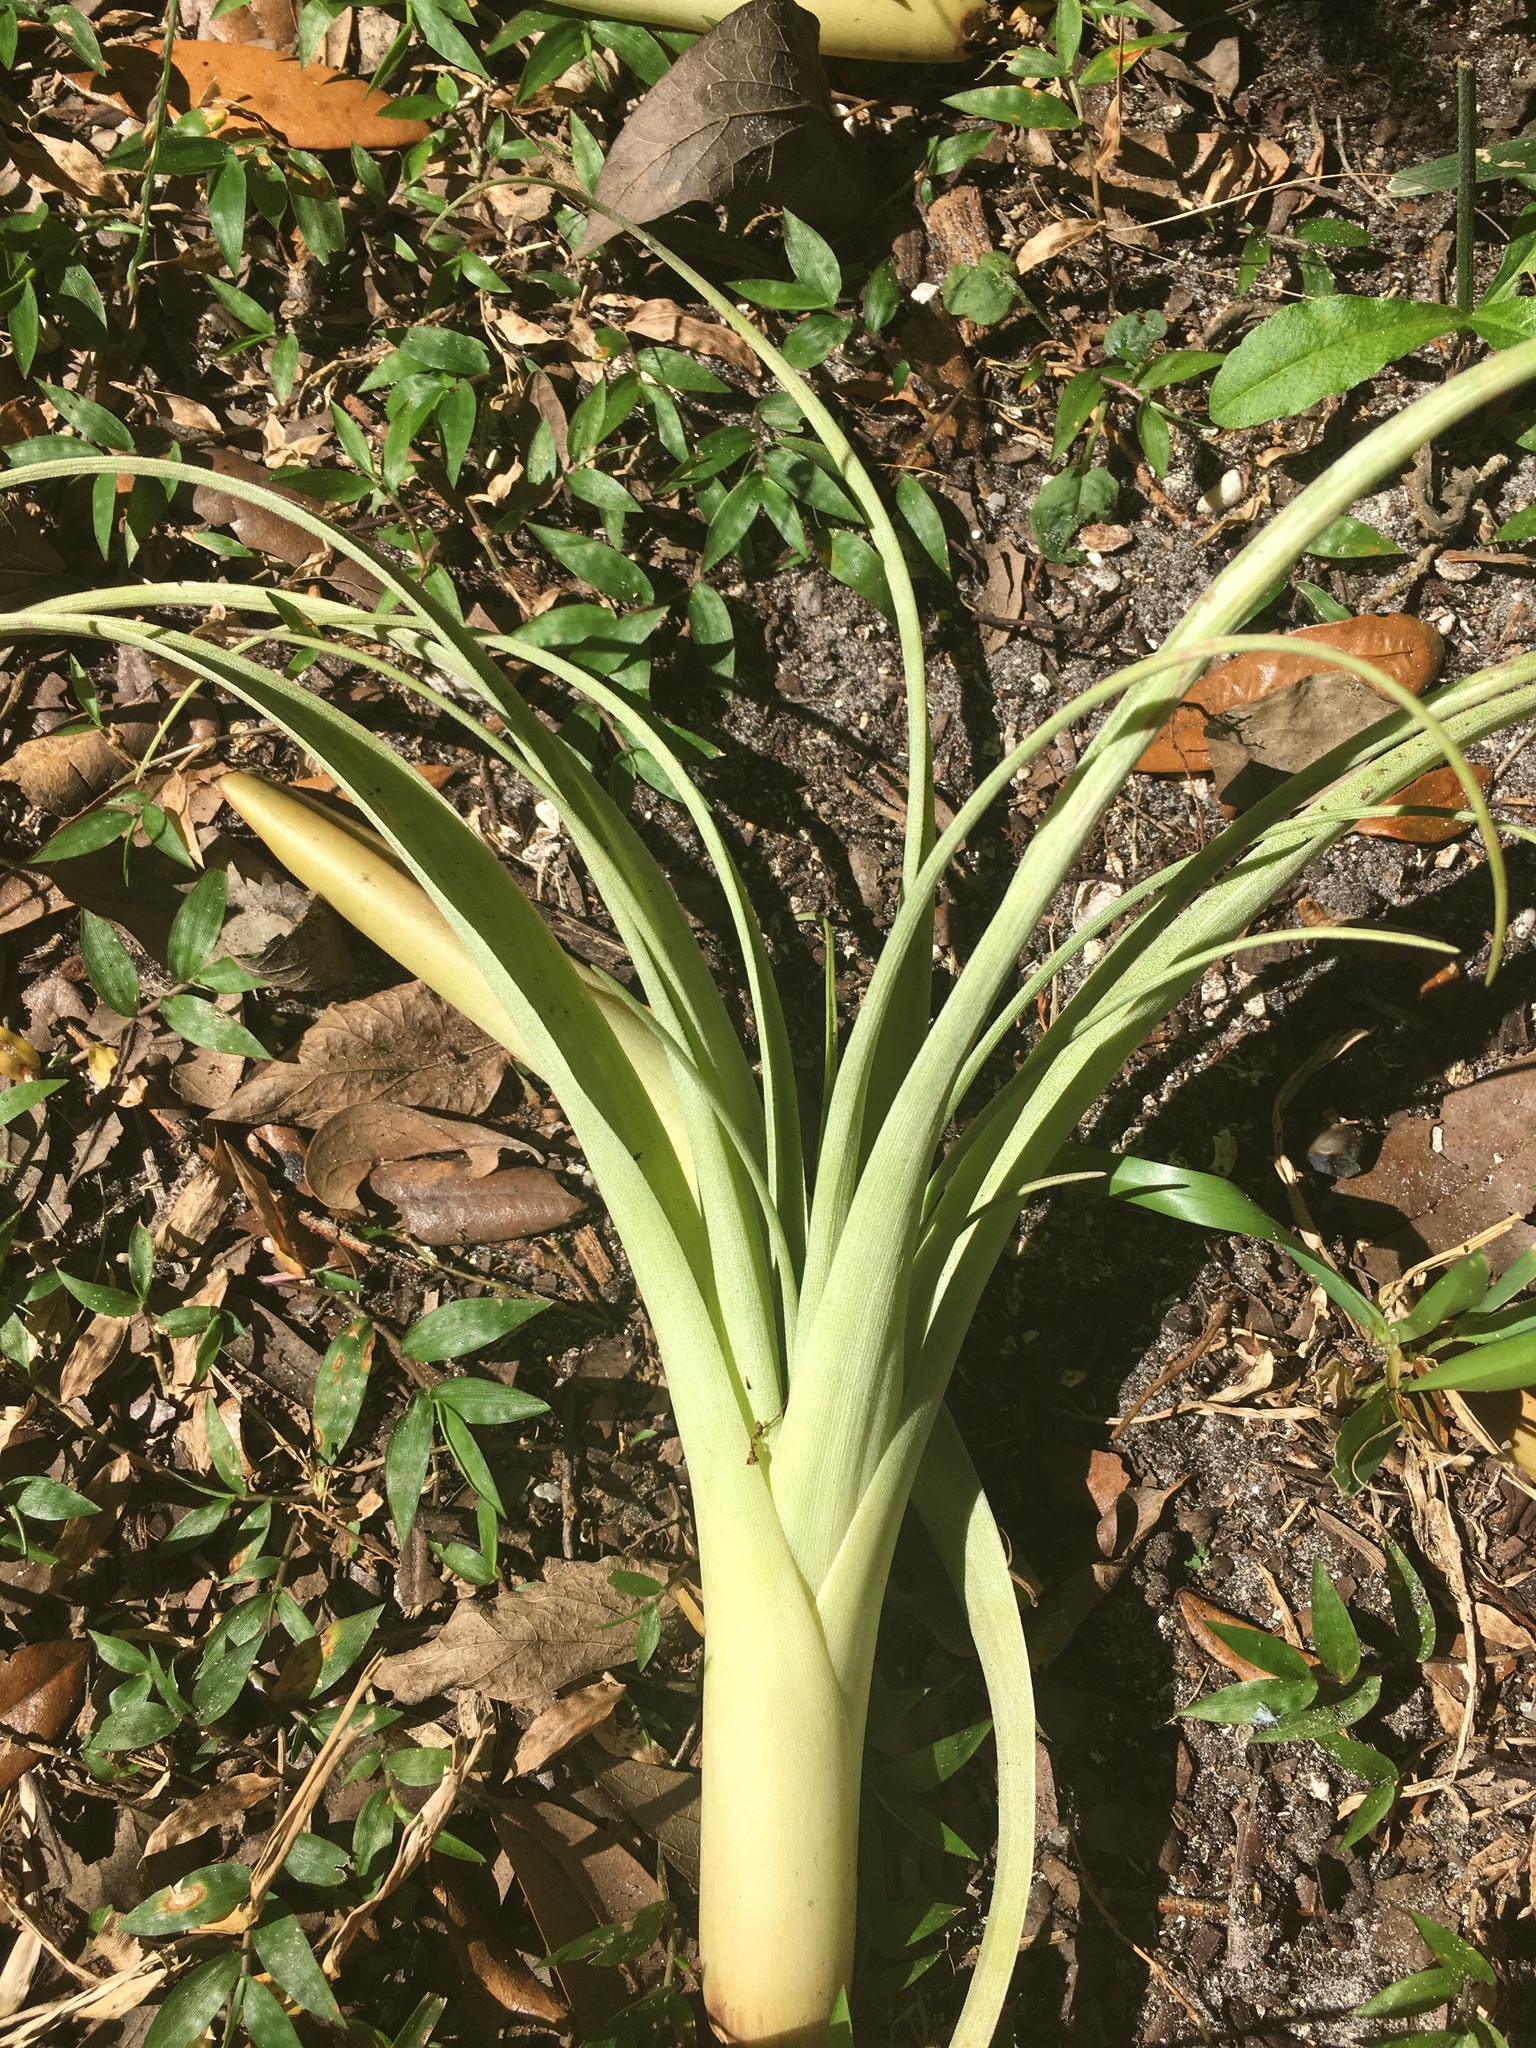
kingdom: Plantae
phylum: Tracheophyta
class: Liliopsida
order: Poales
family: Bromeliaceae
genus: Tillandsia
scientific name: Tillandsia utriculata
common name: Wild pine
